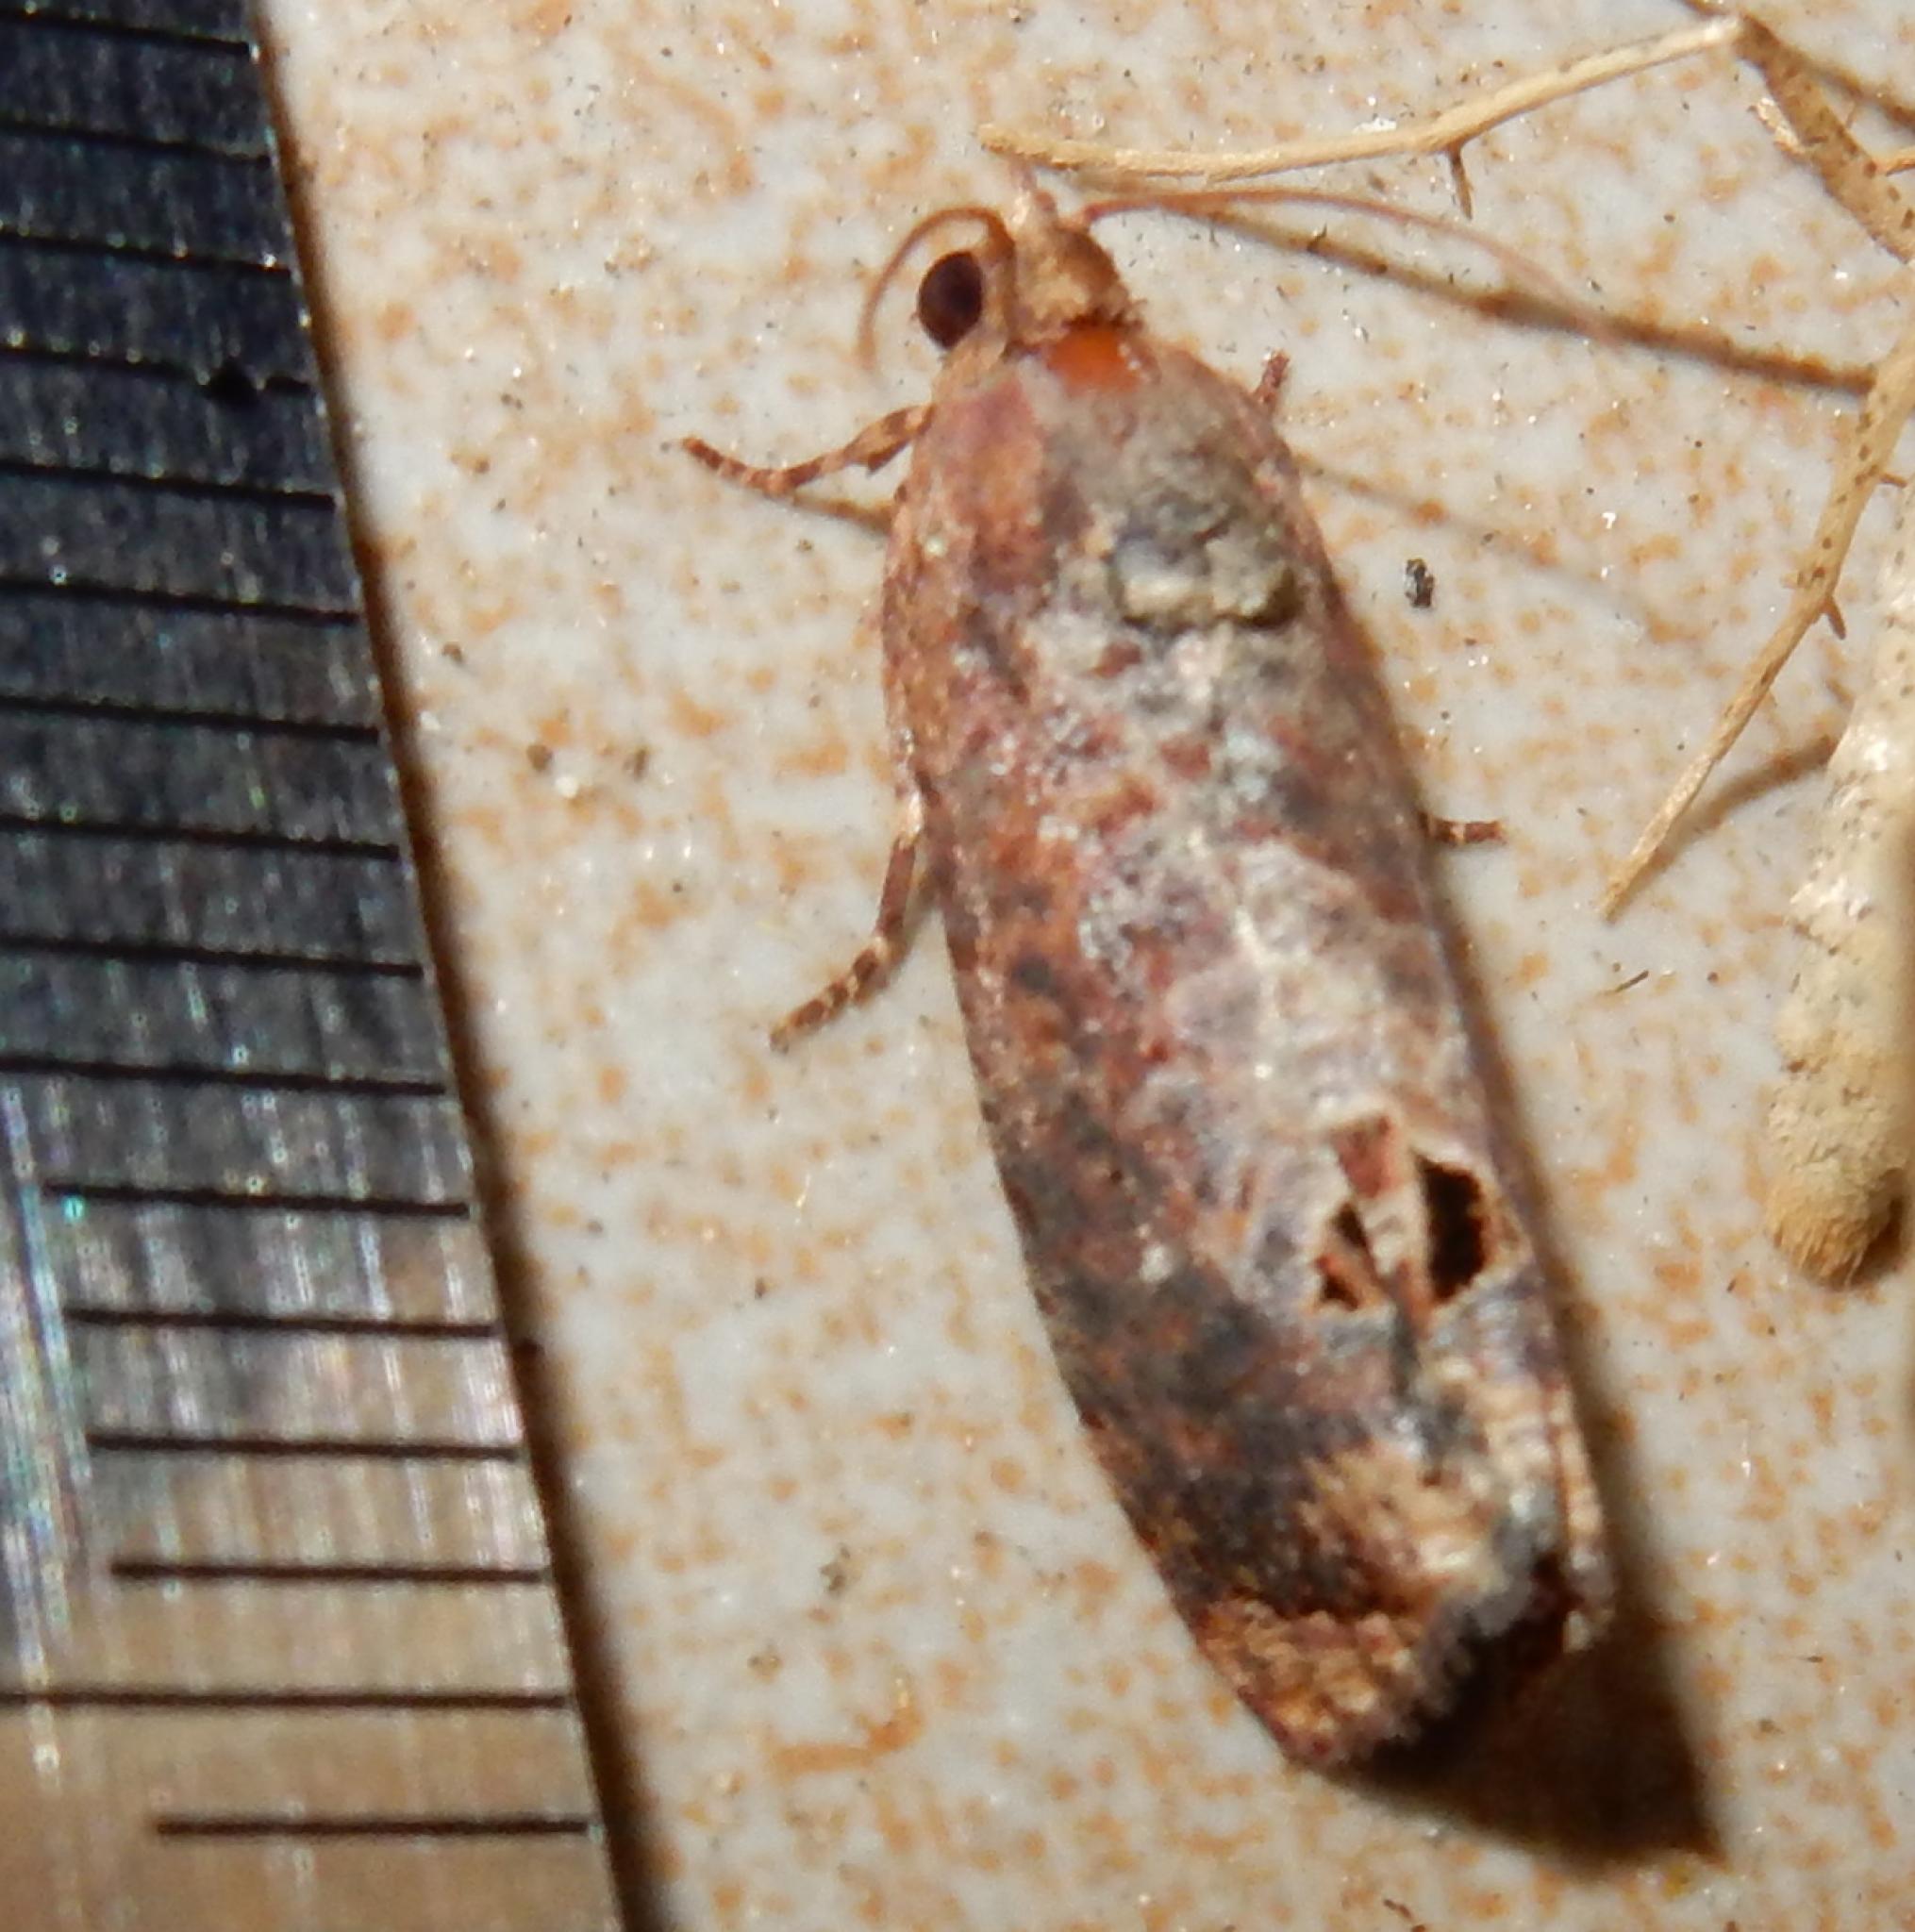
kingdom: Animalia
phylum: Arthropoda
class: Insecta
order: Lepidoptera
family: Tortricidae
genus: Cryptophlebia
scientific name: Cryptophlebia peltastica
